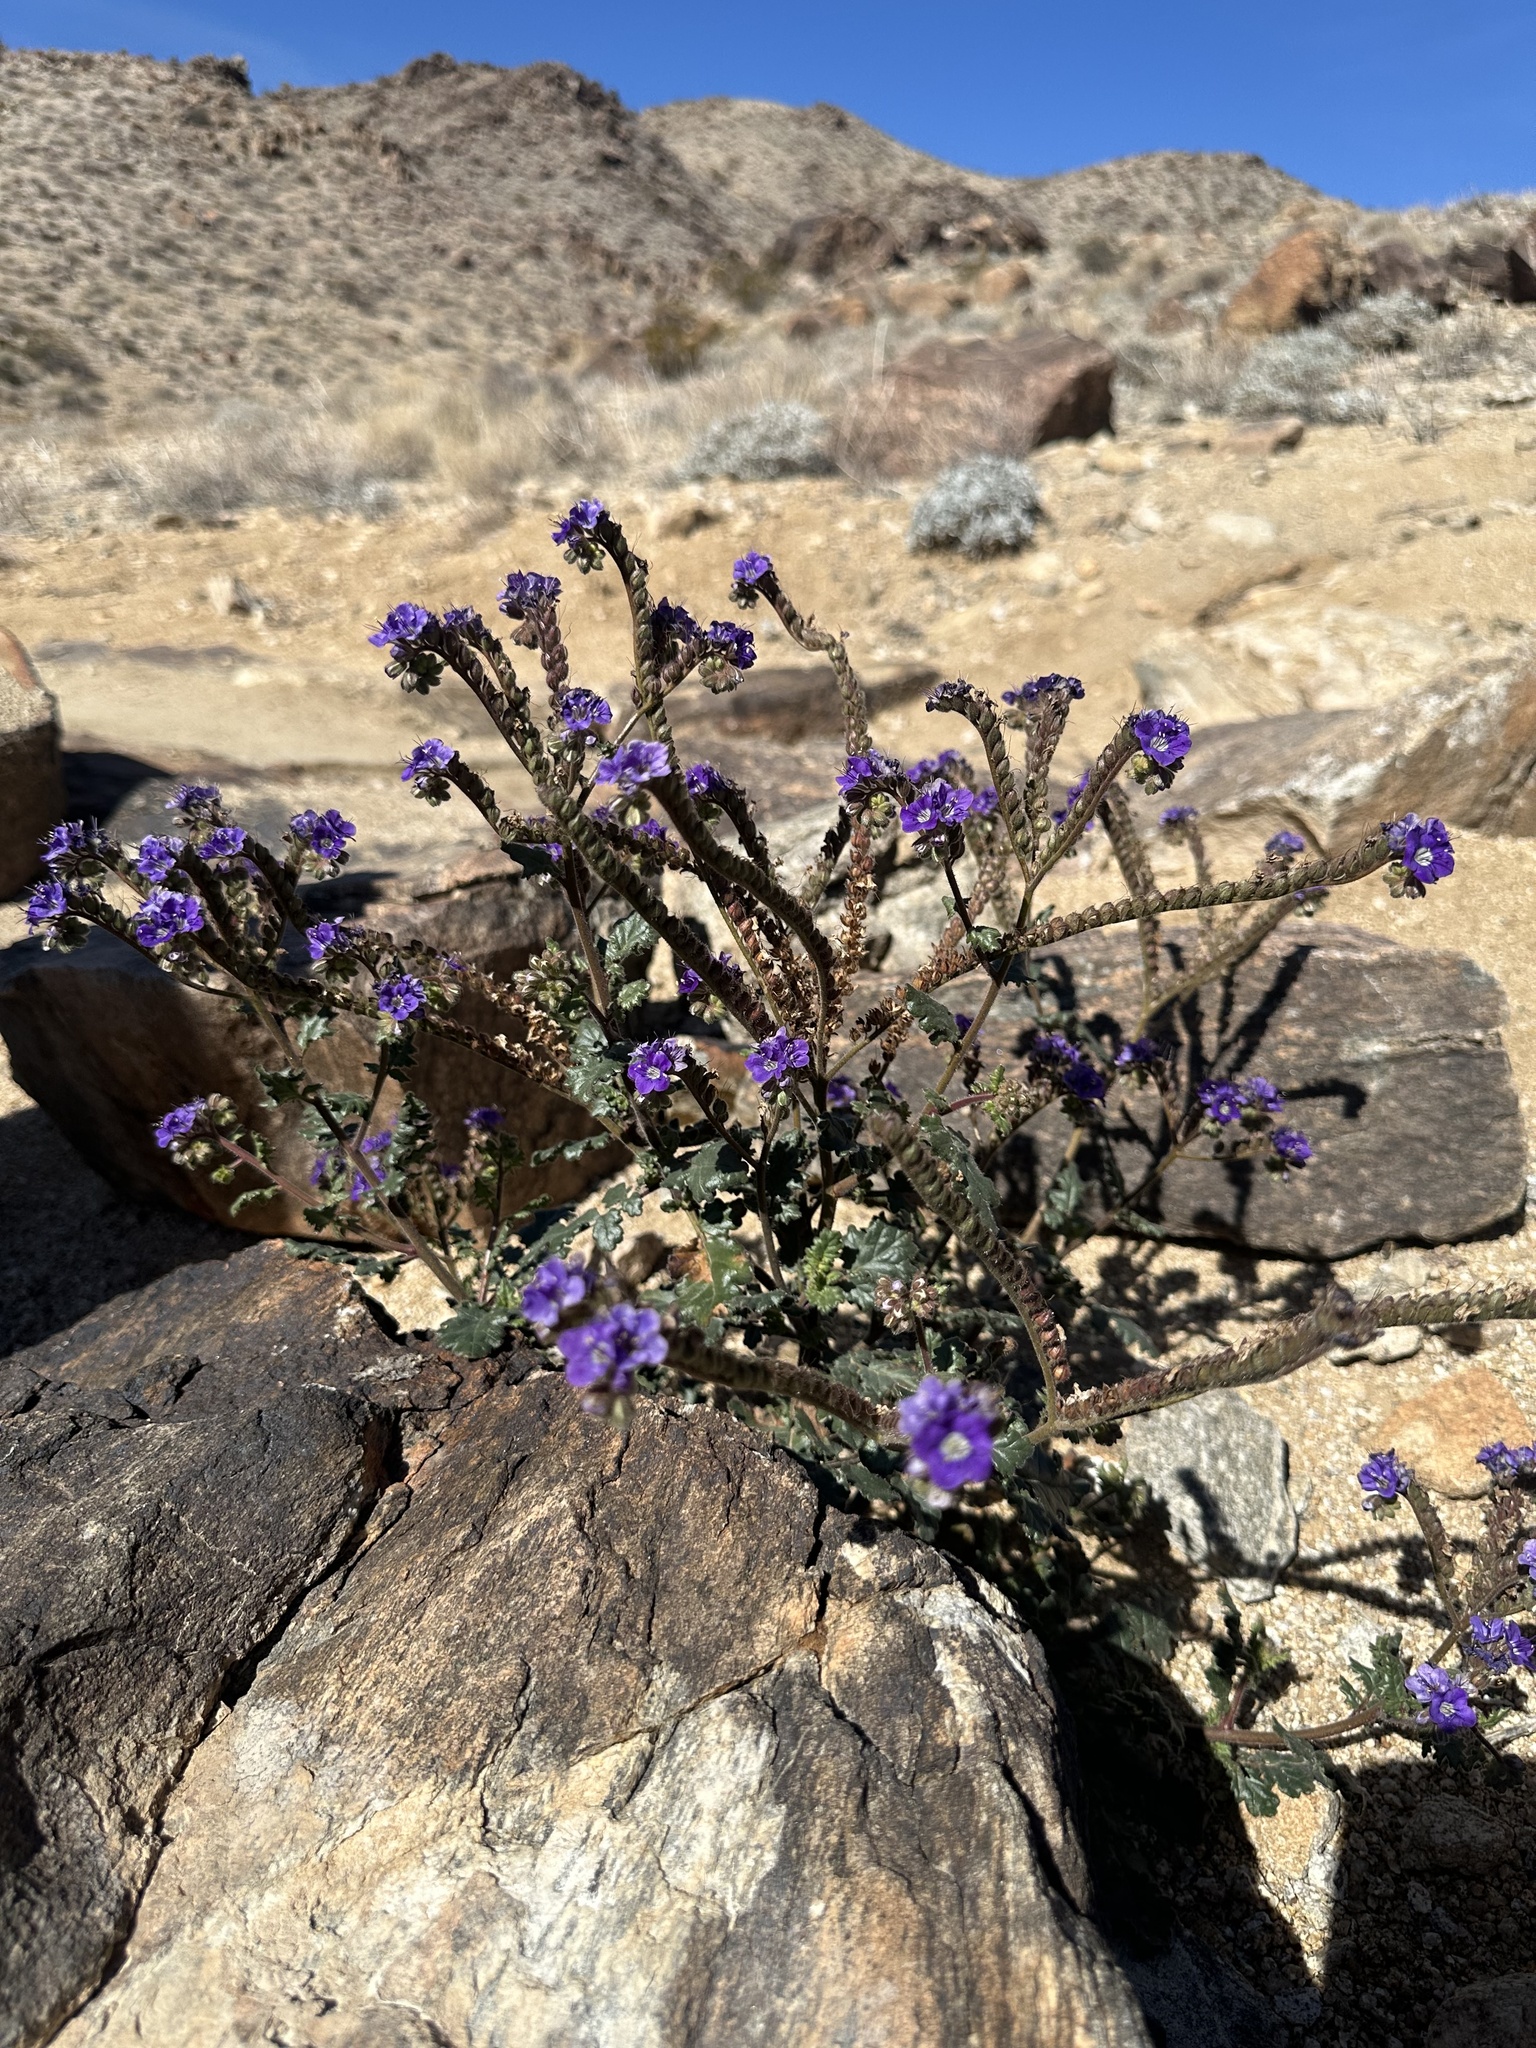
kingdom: Plantae
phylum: Tracheophyta
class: Magnoliopsida
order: Boraginales
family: Hydrophyllaceae
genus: Phacelia
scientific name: Phacelia crenulata
